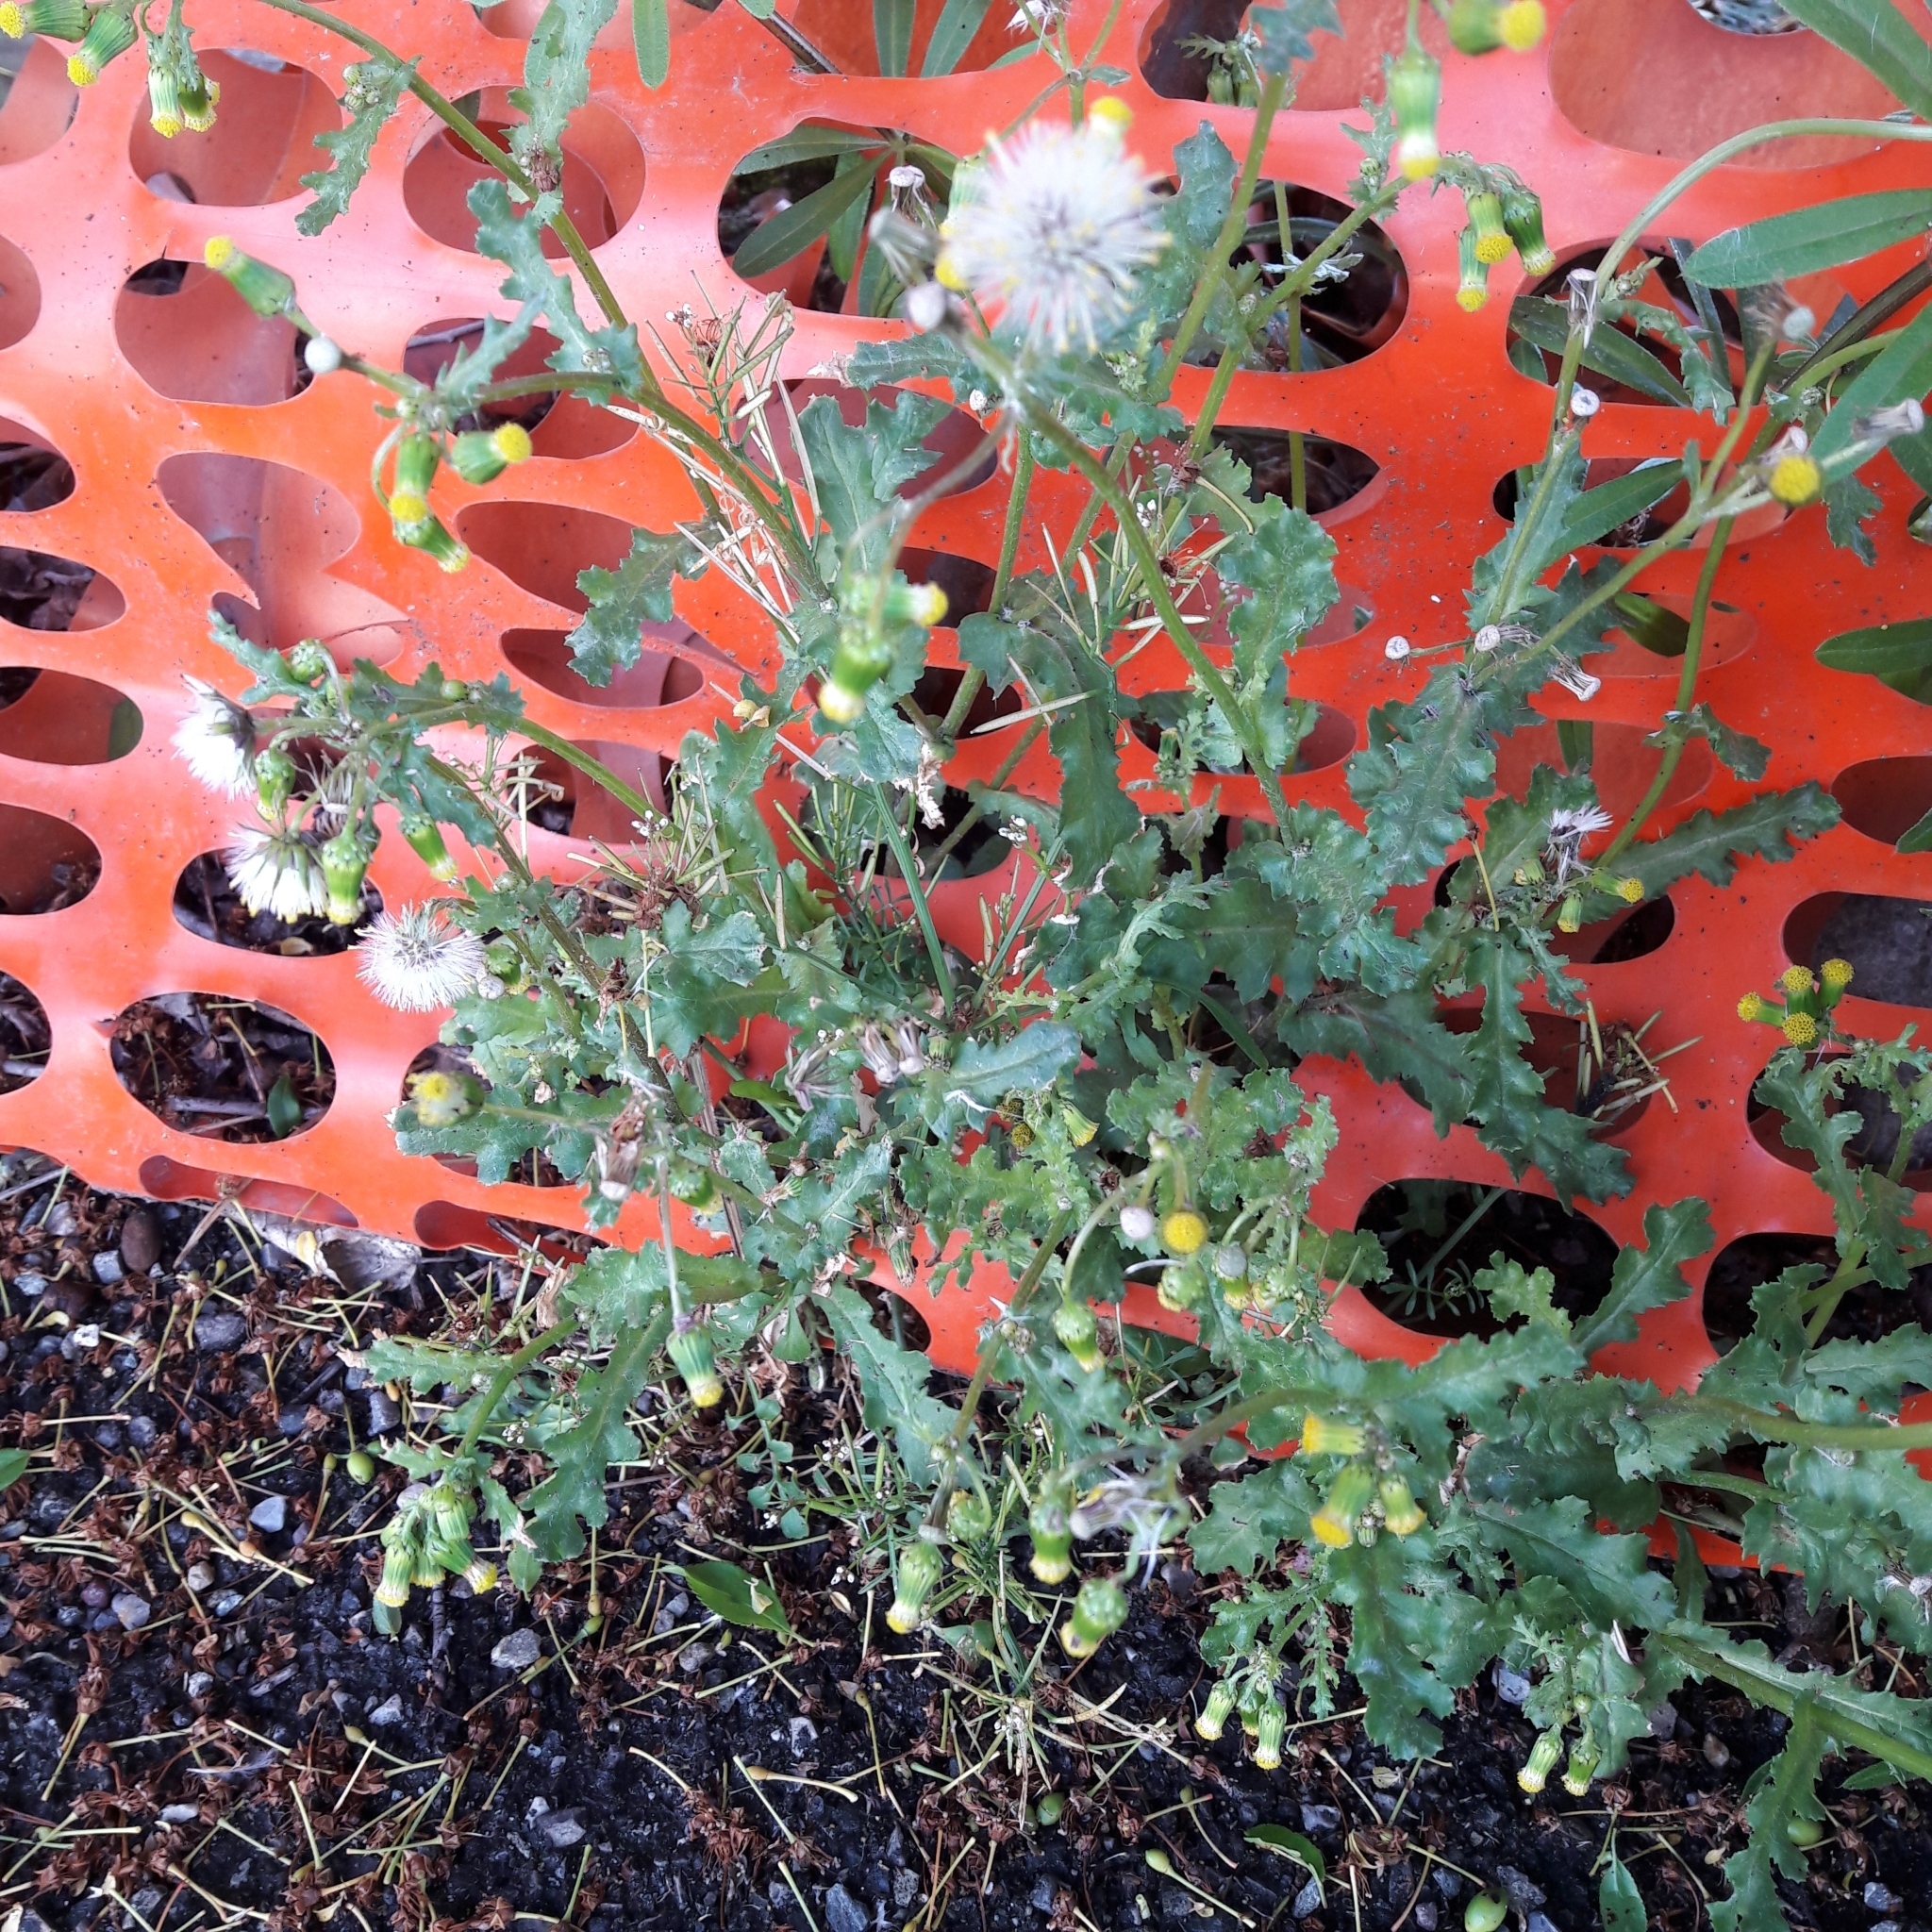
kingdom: Plantae
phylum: Tracheophyta
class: Magnoliopsida
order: Asterales
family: Asteraceae
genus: Senecio
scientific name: Senecio vulgaris
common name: Old-man-in-the-spring
